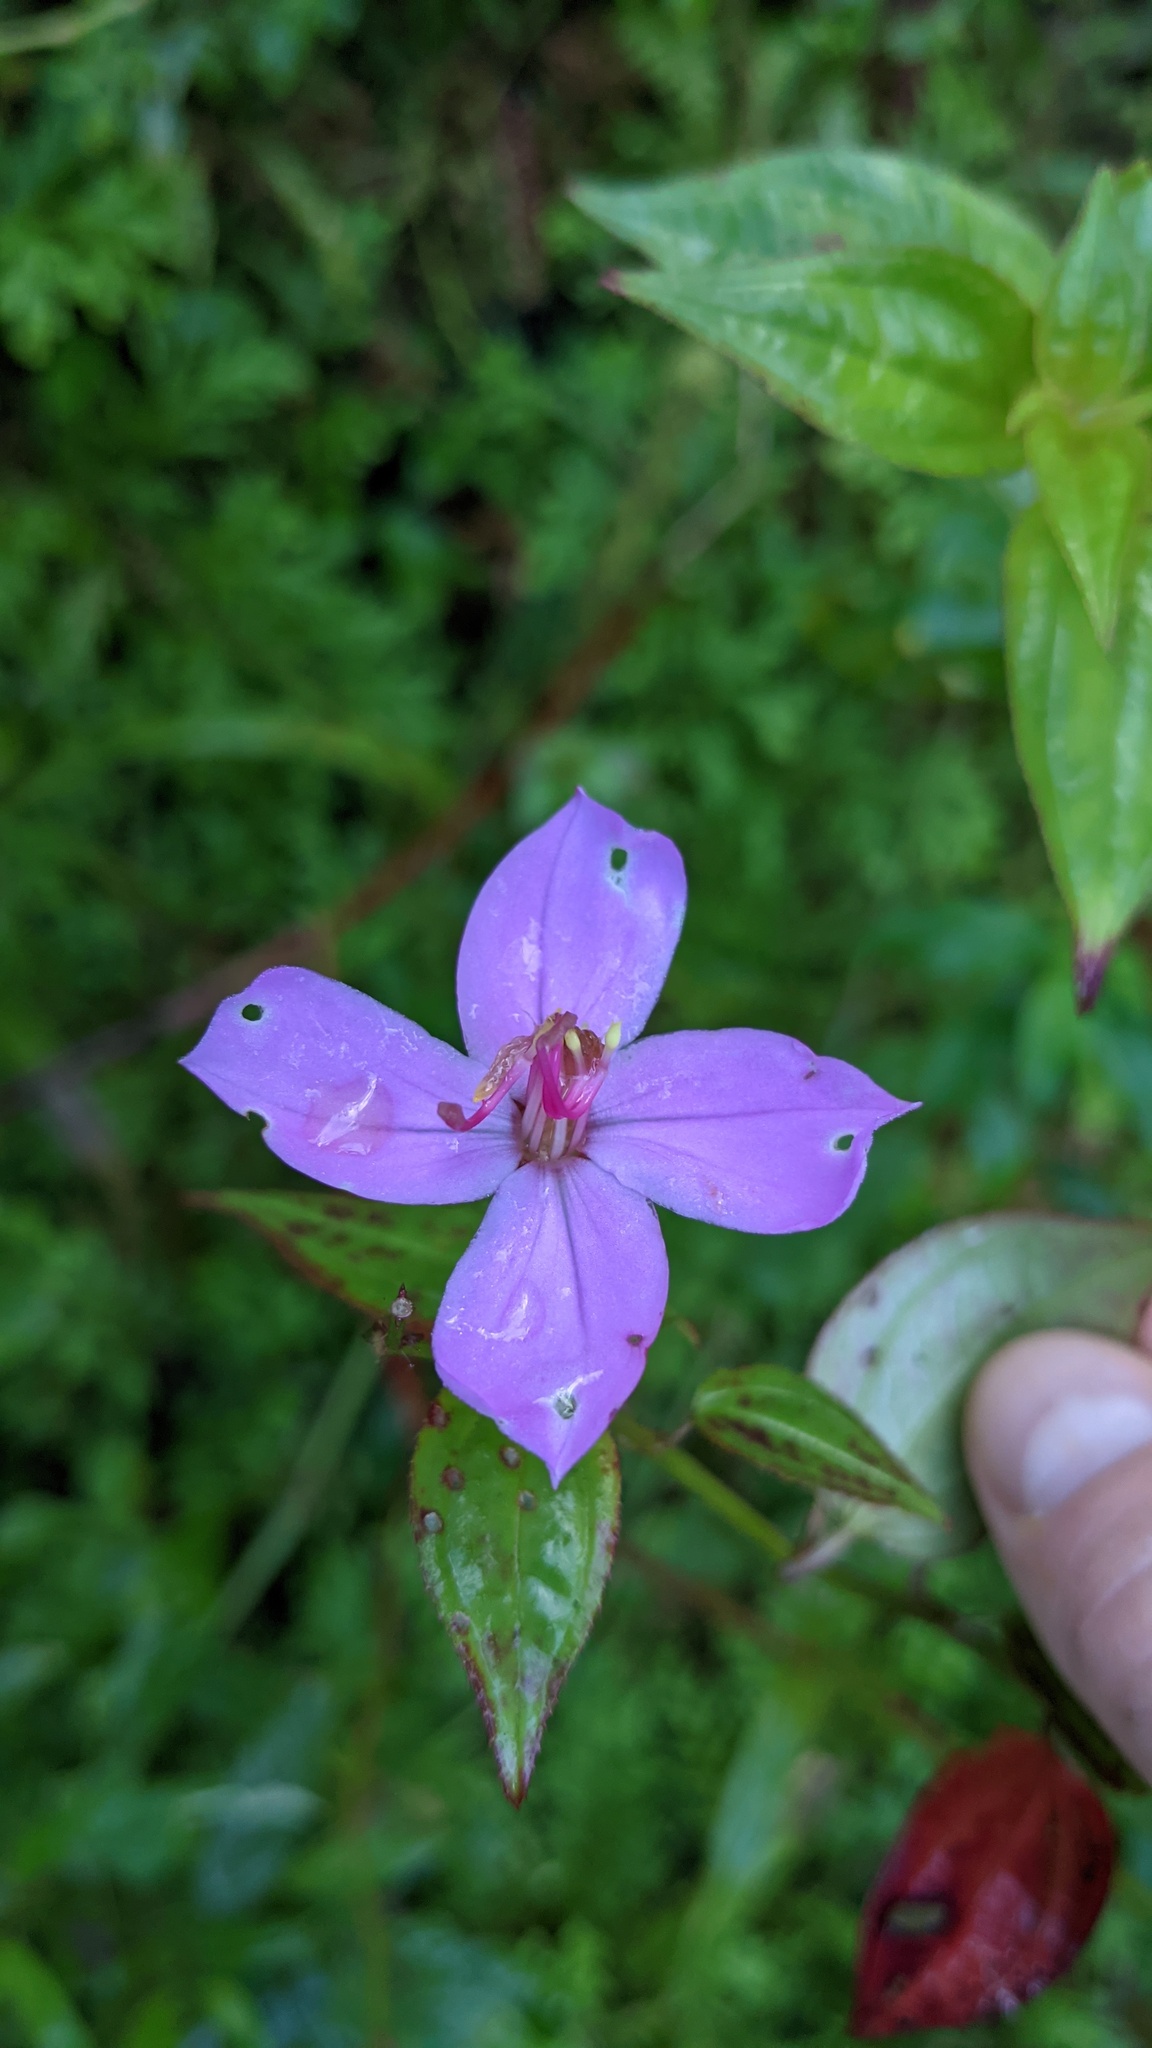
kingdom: Plantae
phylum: Tracheophyta
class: Magnoliopsida
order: Myrtales
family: Melastomataceae
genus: Arthrostemma
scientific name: Arthrostemma ciliatum
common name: Everblooming eavender
